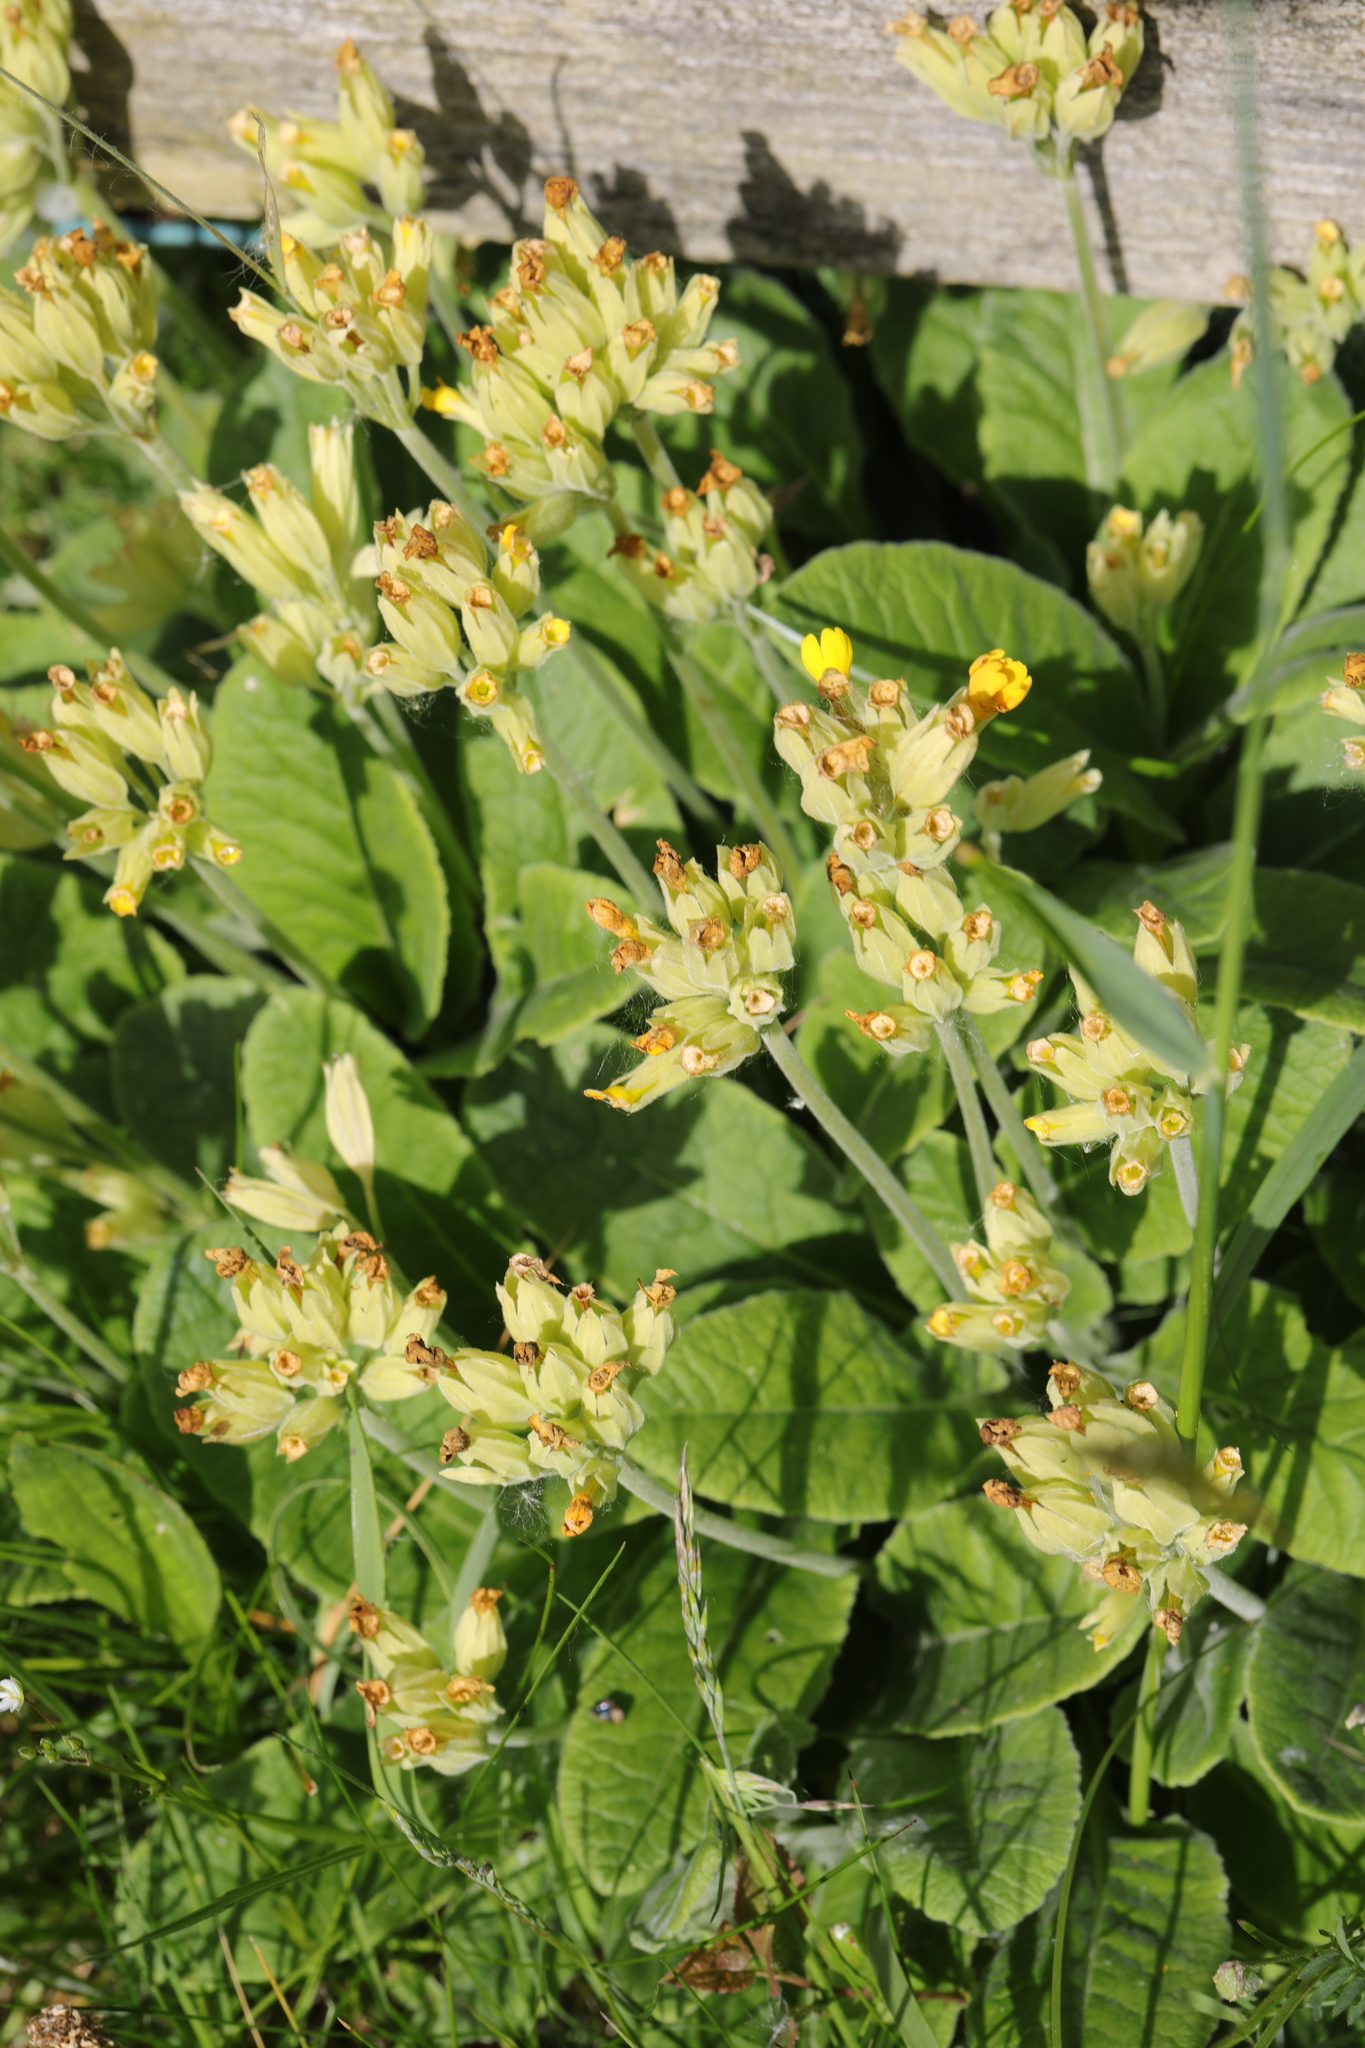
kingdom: Plantae
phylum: Tracheophyta
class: Magnoliopsida
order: Ericales
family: Primulaceae
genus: Primula
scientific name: Primula veris
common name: Cowslip
